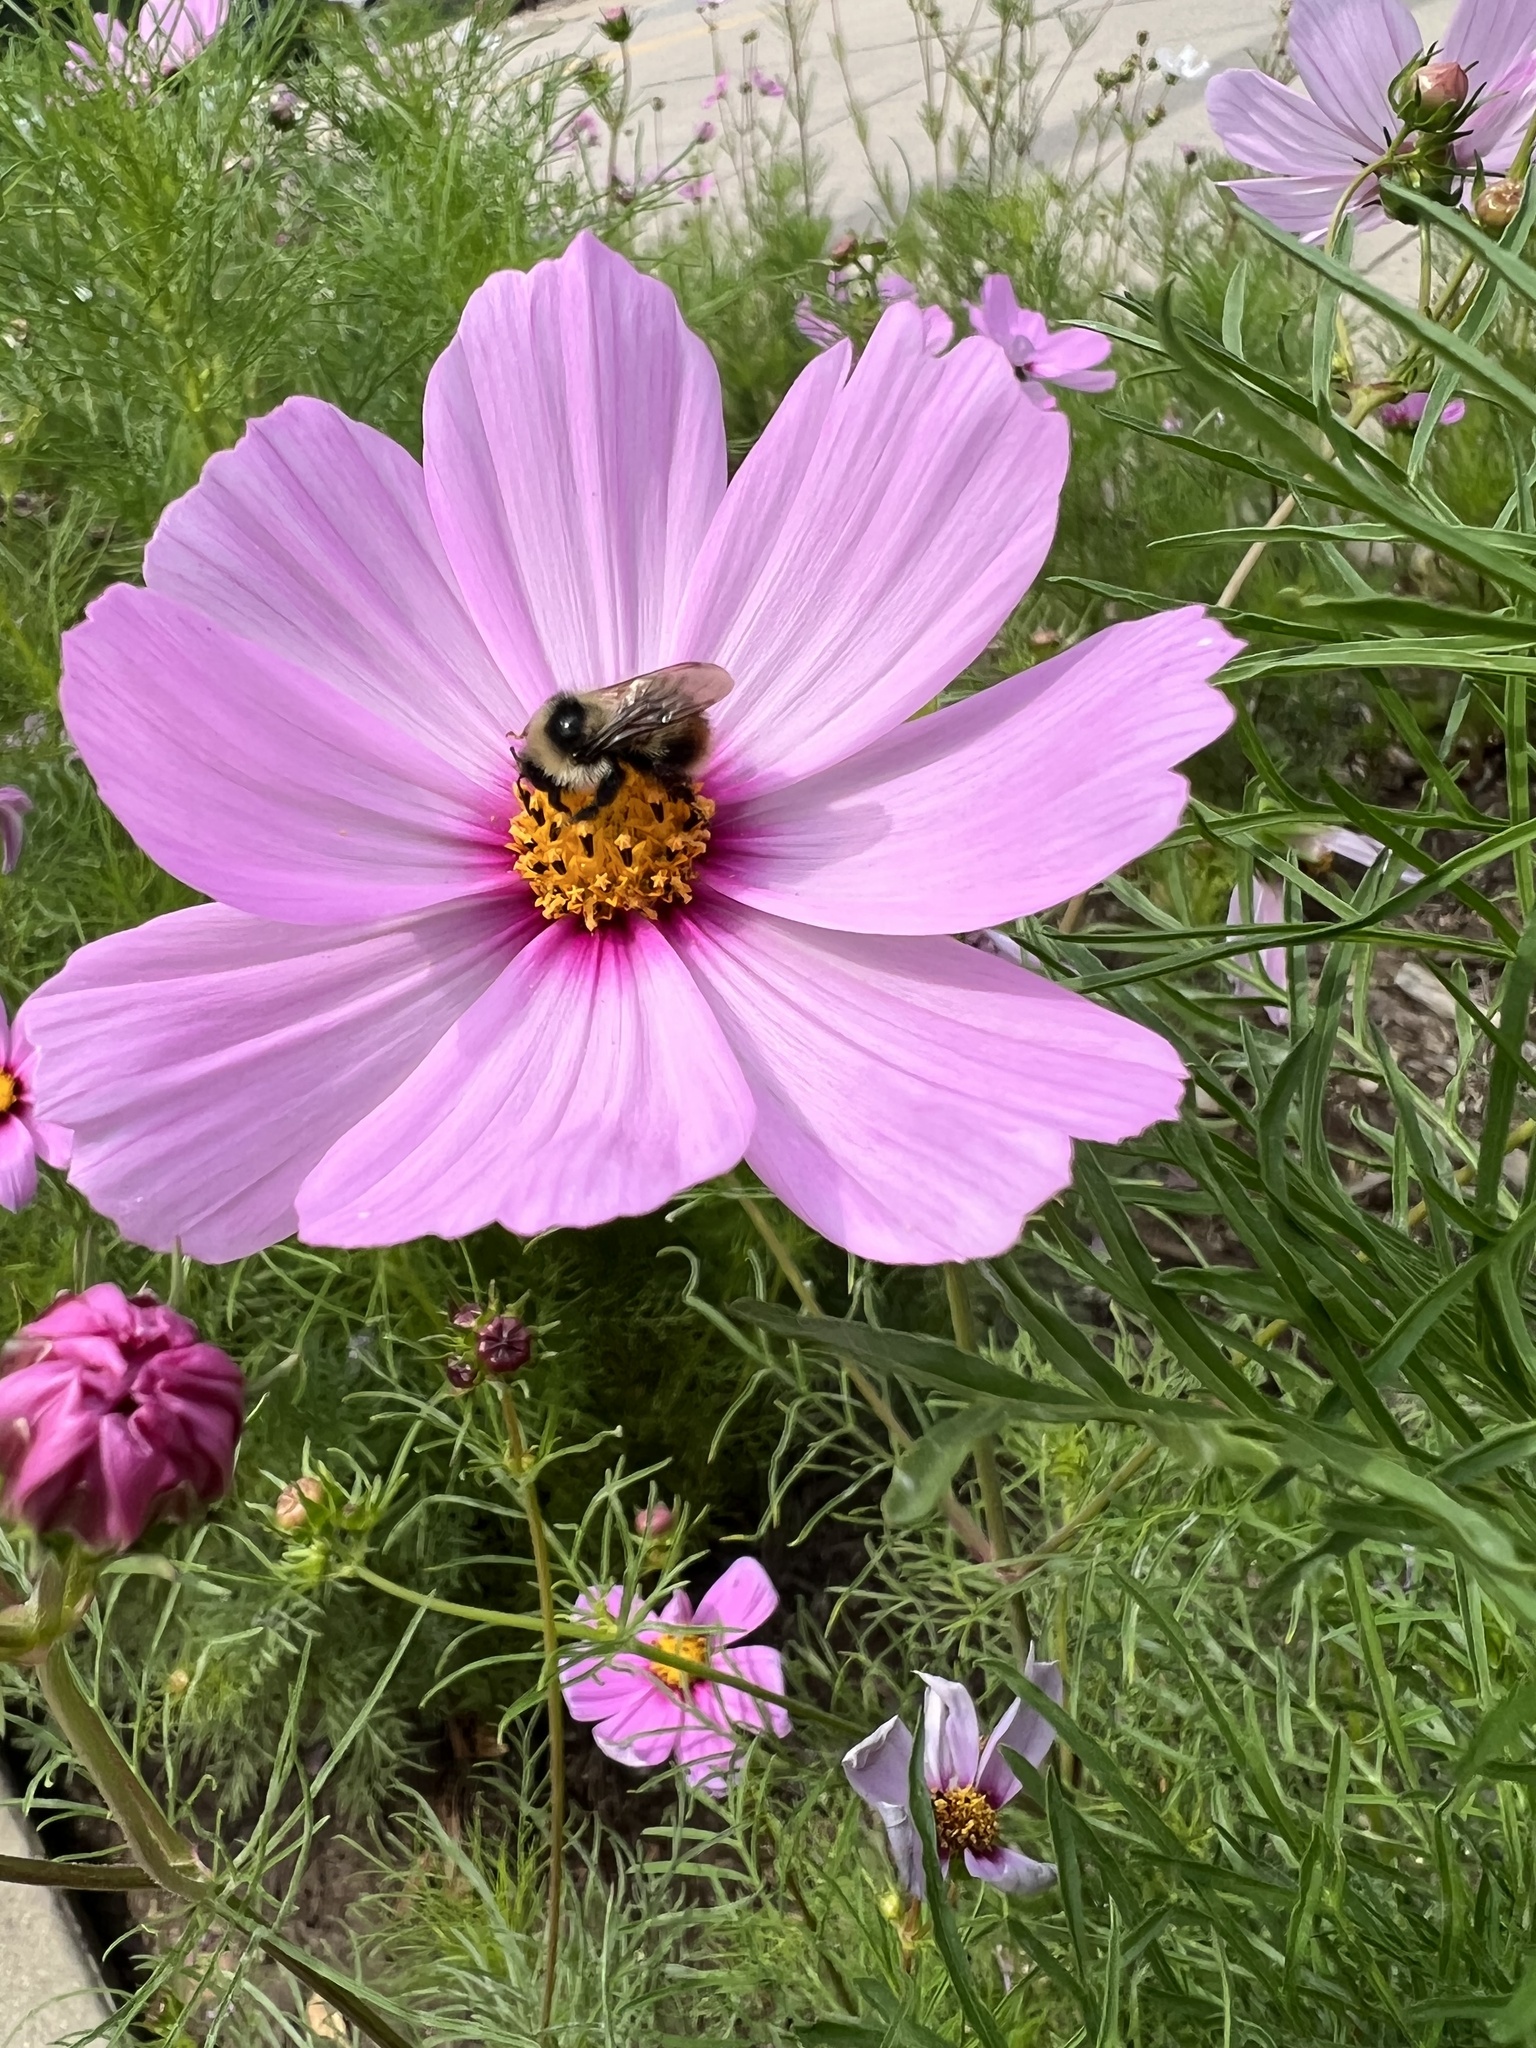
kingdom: Animalia
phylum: Arthropoda
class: Insecta
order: Hymenoptera
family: Apidae
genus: Bombus
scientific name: Bombus huntii
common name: Hunt bumble bee
